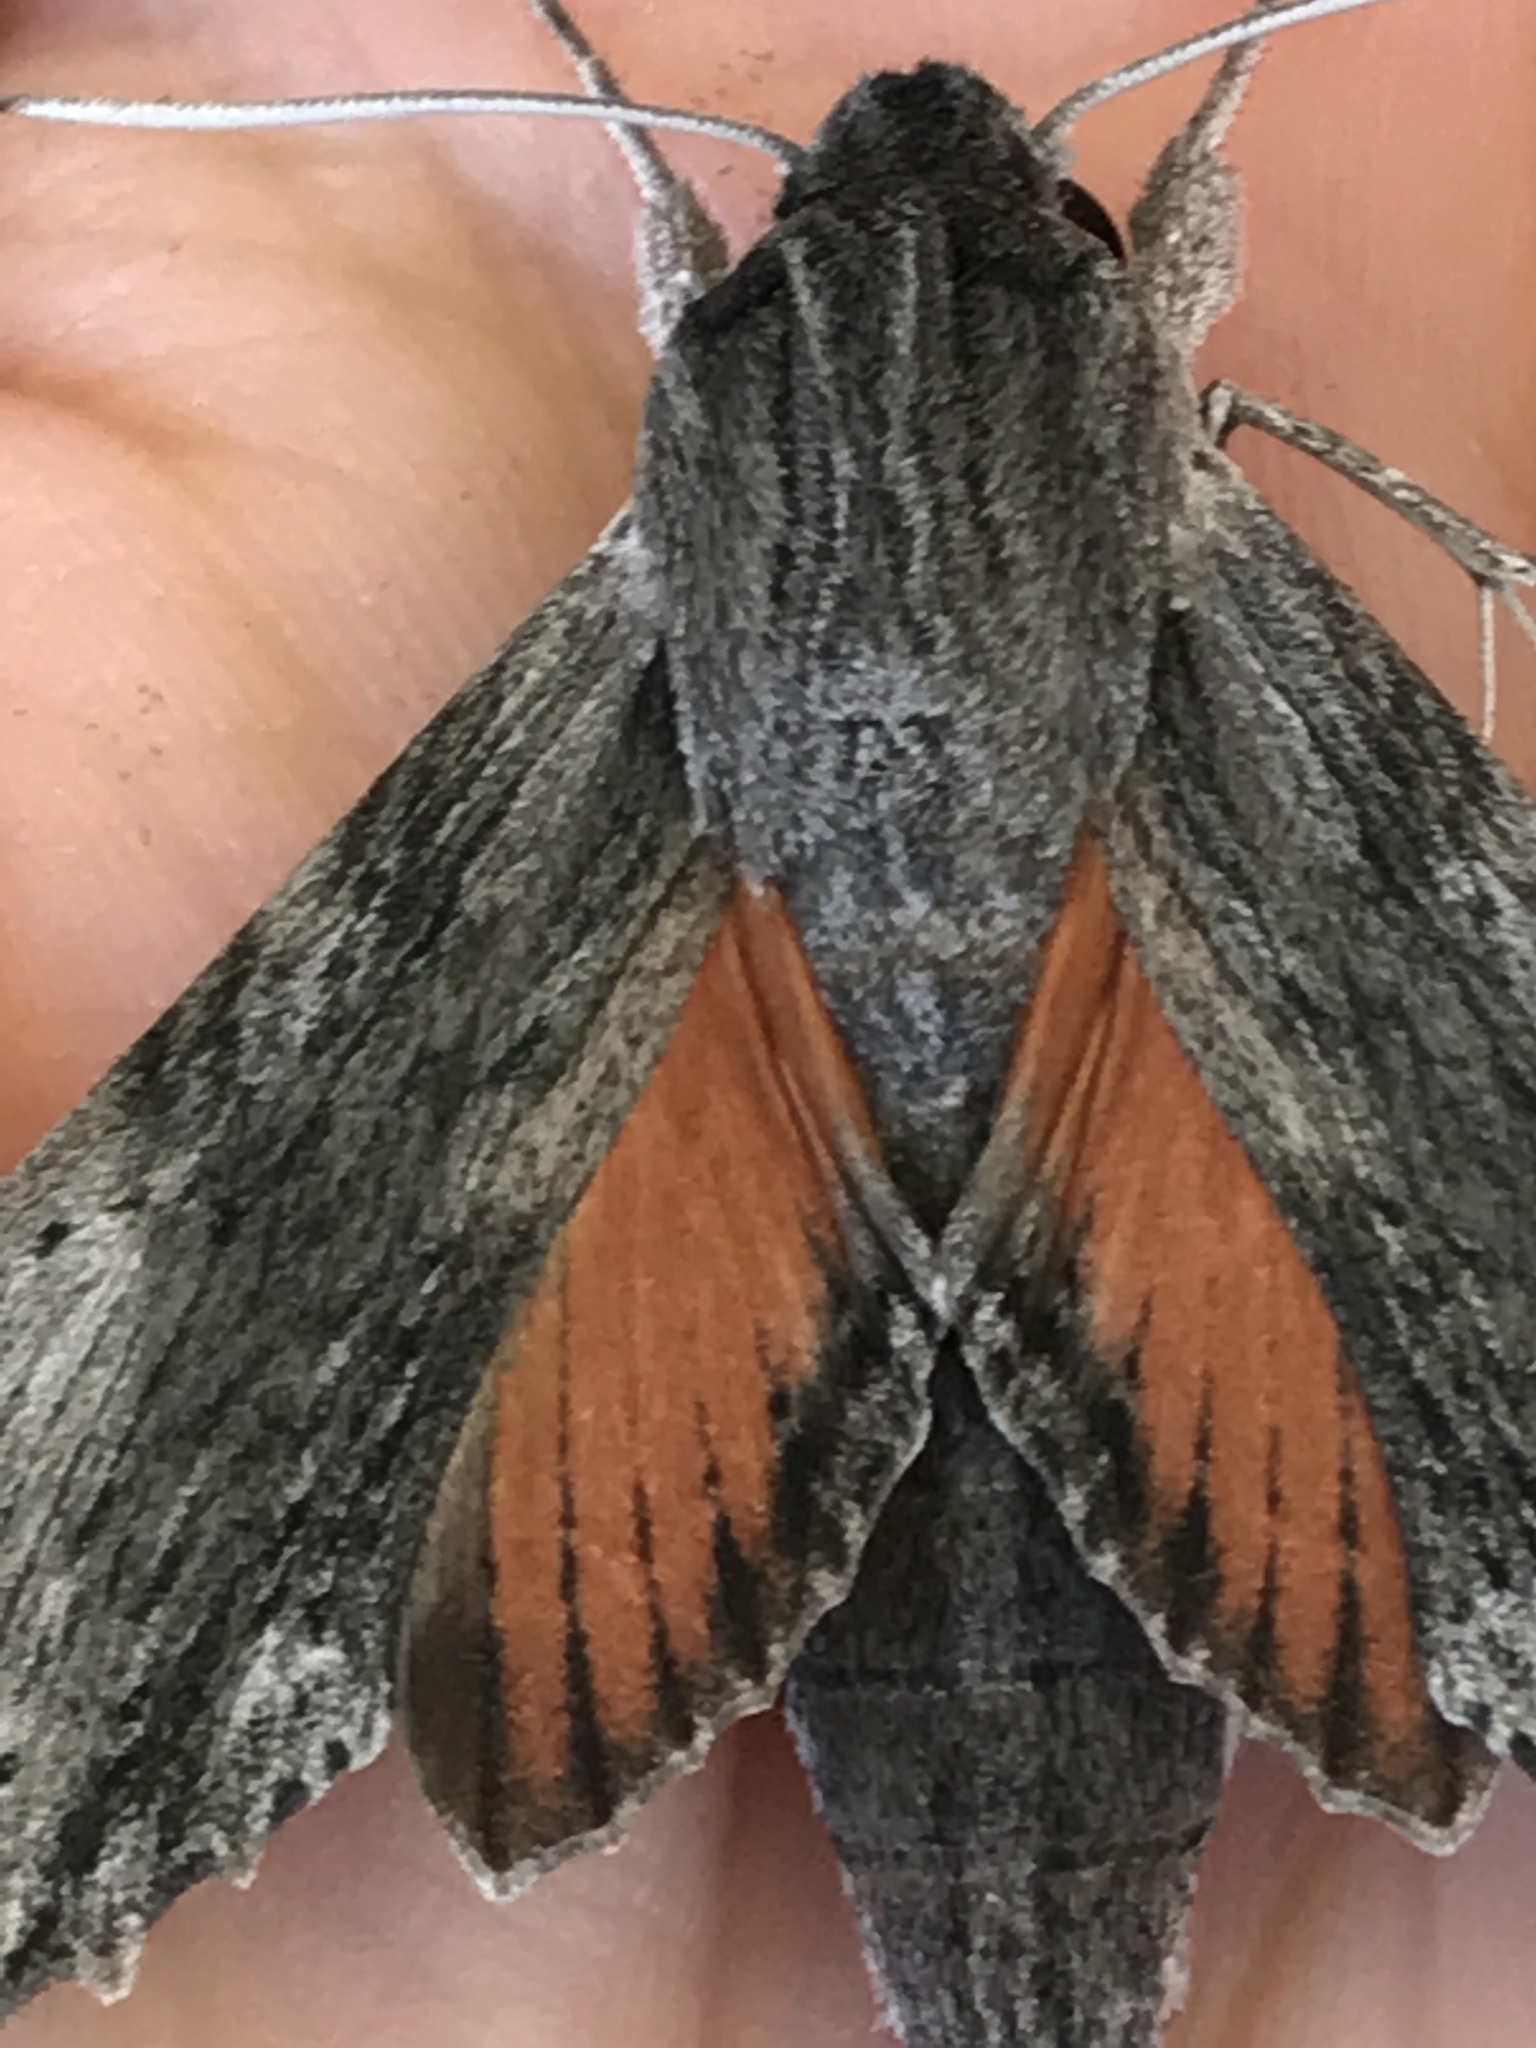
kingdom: Animalia
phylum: Arthropoda
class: Insecta
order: Lepidoptera
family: Sphingidae
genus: Erinnyis
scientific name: Erinnyis obscura
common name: Obscure sphinx
